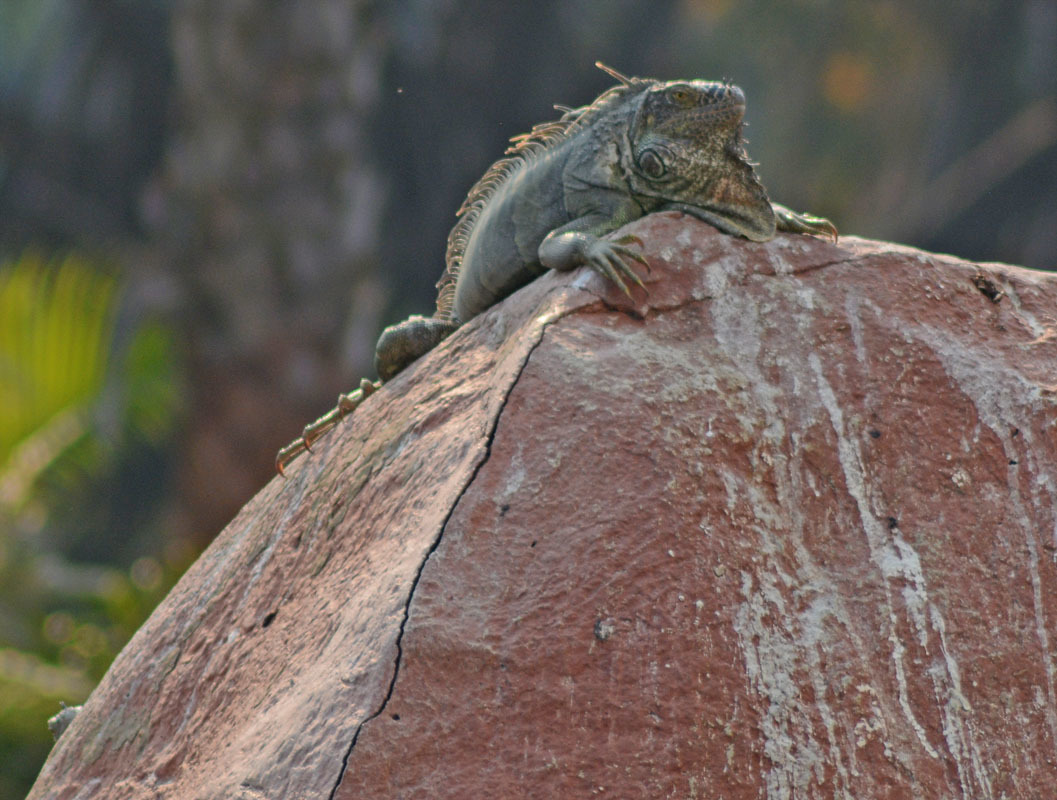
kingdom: Animalia
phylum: Chordata
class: Squamata
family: Iguanidae
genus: Iguana
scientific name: Iguana iguana
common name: Green iguana
